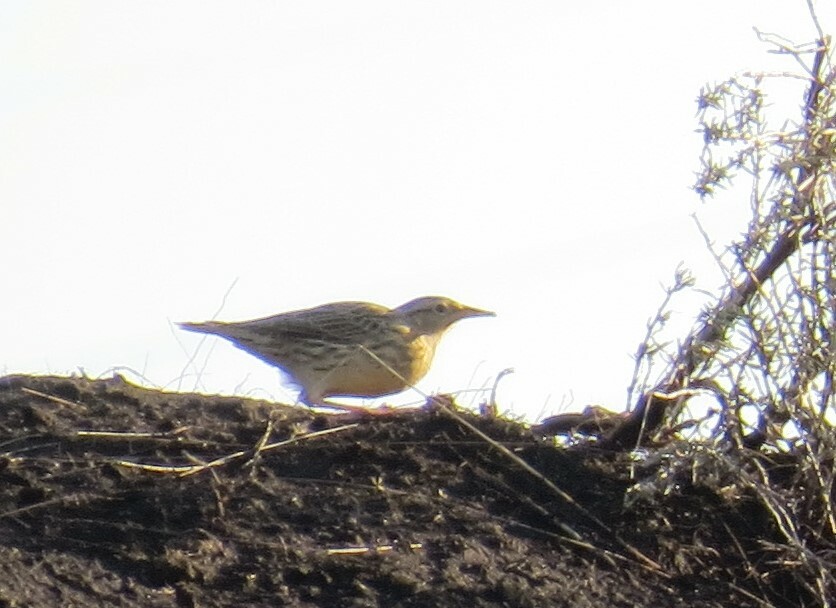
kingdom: Animalia
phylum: Chordata
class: Aves
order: Passeriformes
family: Icteridae
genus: Sturnella
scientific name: Sturnella neglecta
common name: Western meadowlark
